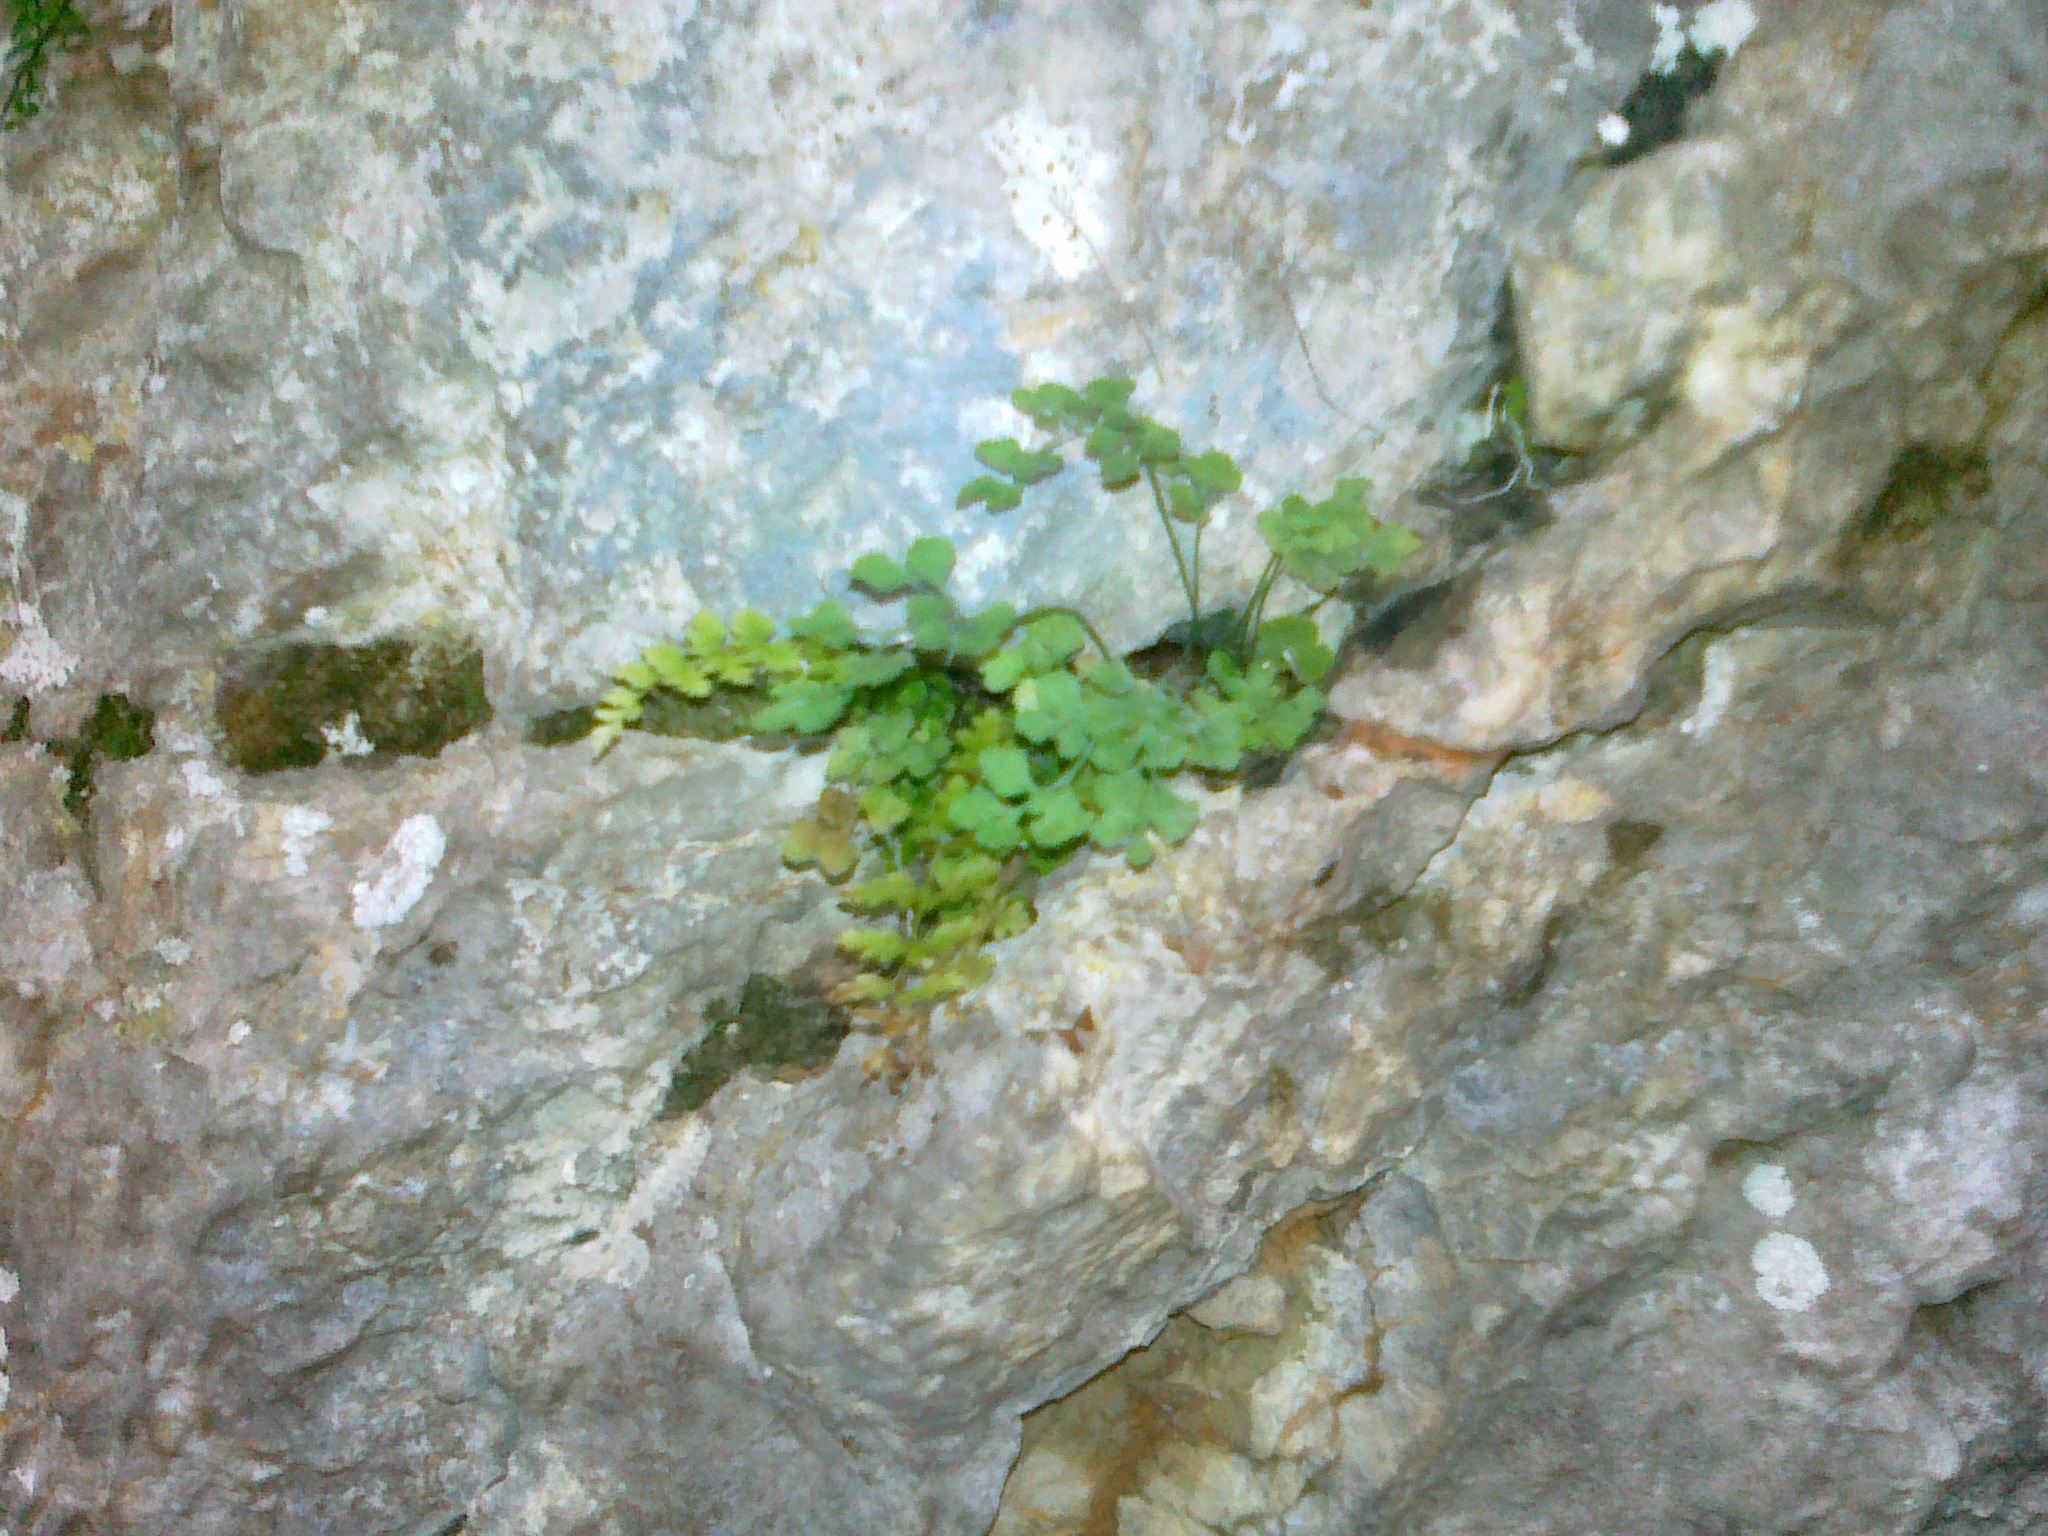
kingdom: Plantae
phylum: Tracheophyta
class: Polypodiopsida
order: Polypodiales
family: Aspleniaceae
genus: Asplenium
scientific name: Asplenium ruta-muraria
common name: Wall-rue
